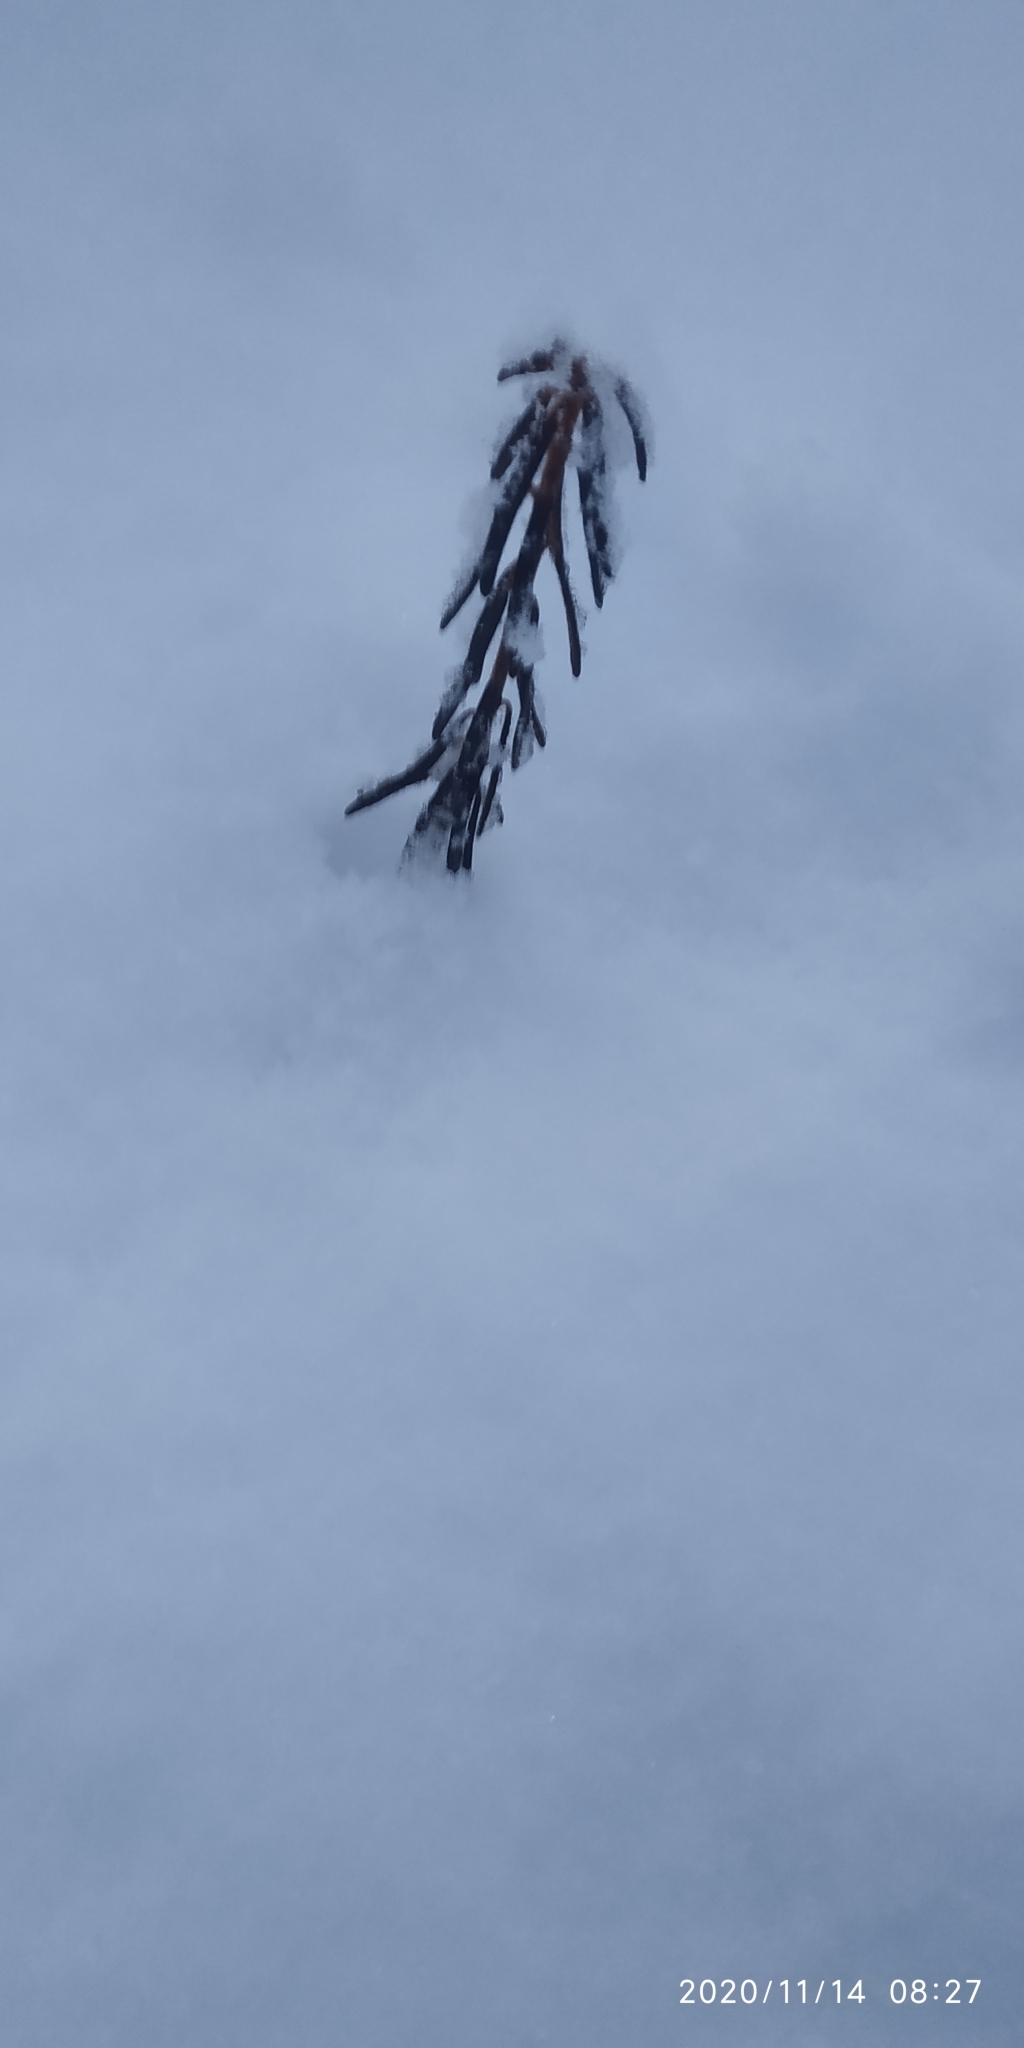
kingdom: Plantae
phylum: Tracheophyta
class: Magnoliopsida
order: Ericales
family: Ericaceae
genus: Rhododendron
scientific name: Rhododendron tomentosum
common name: Marsh labrador tea
